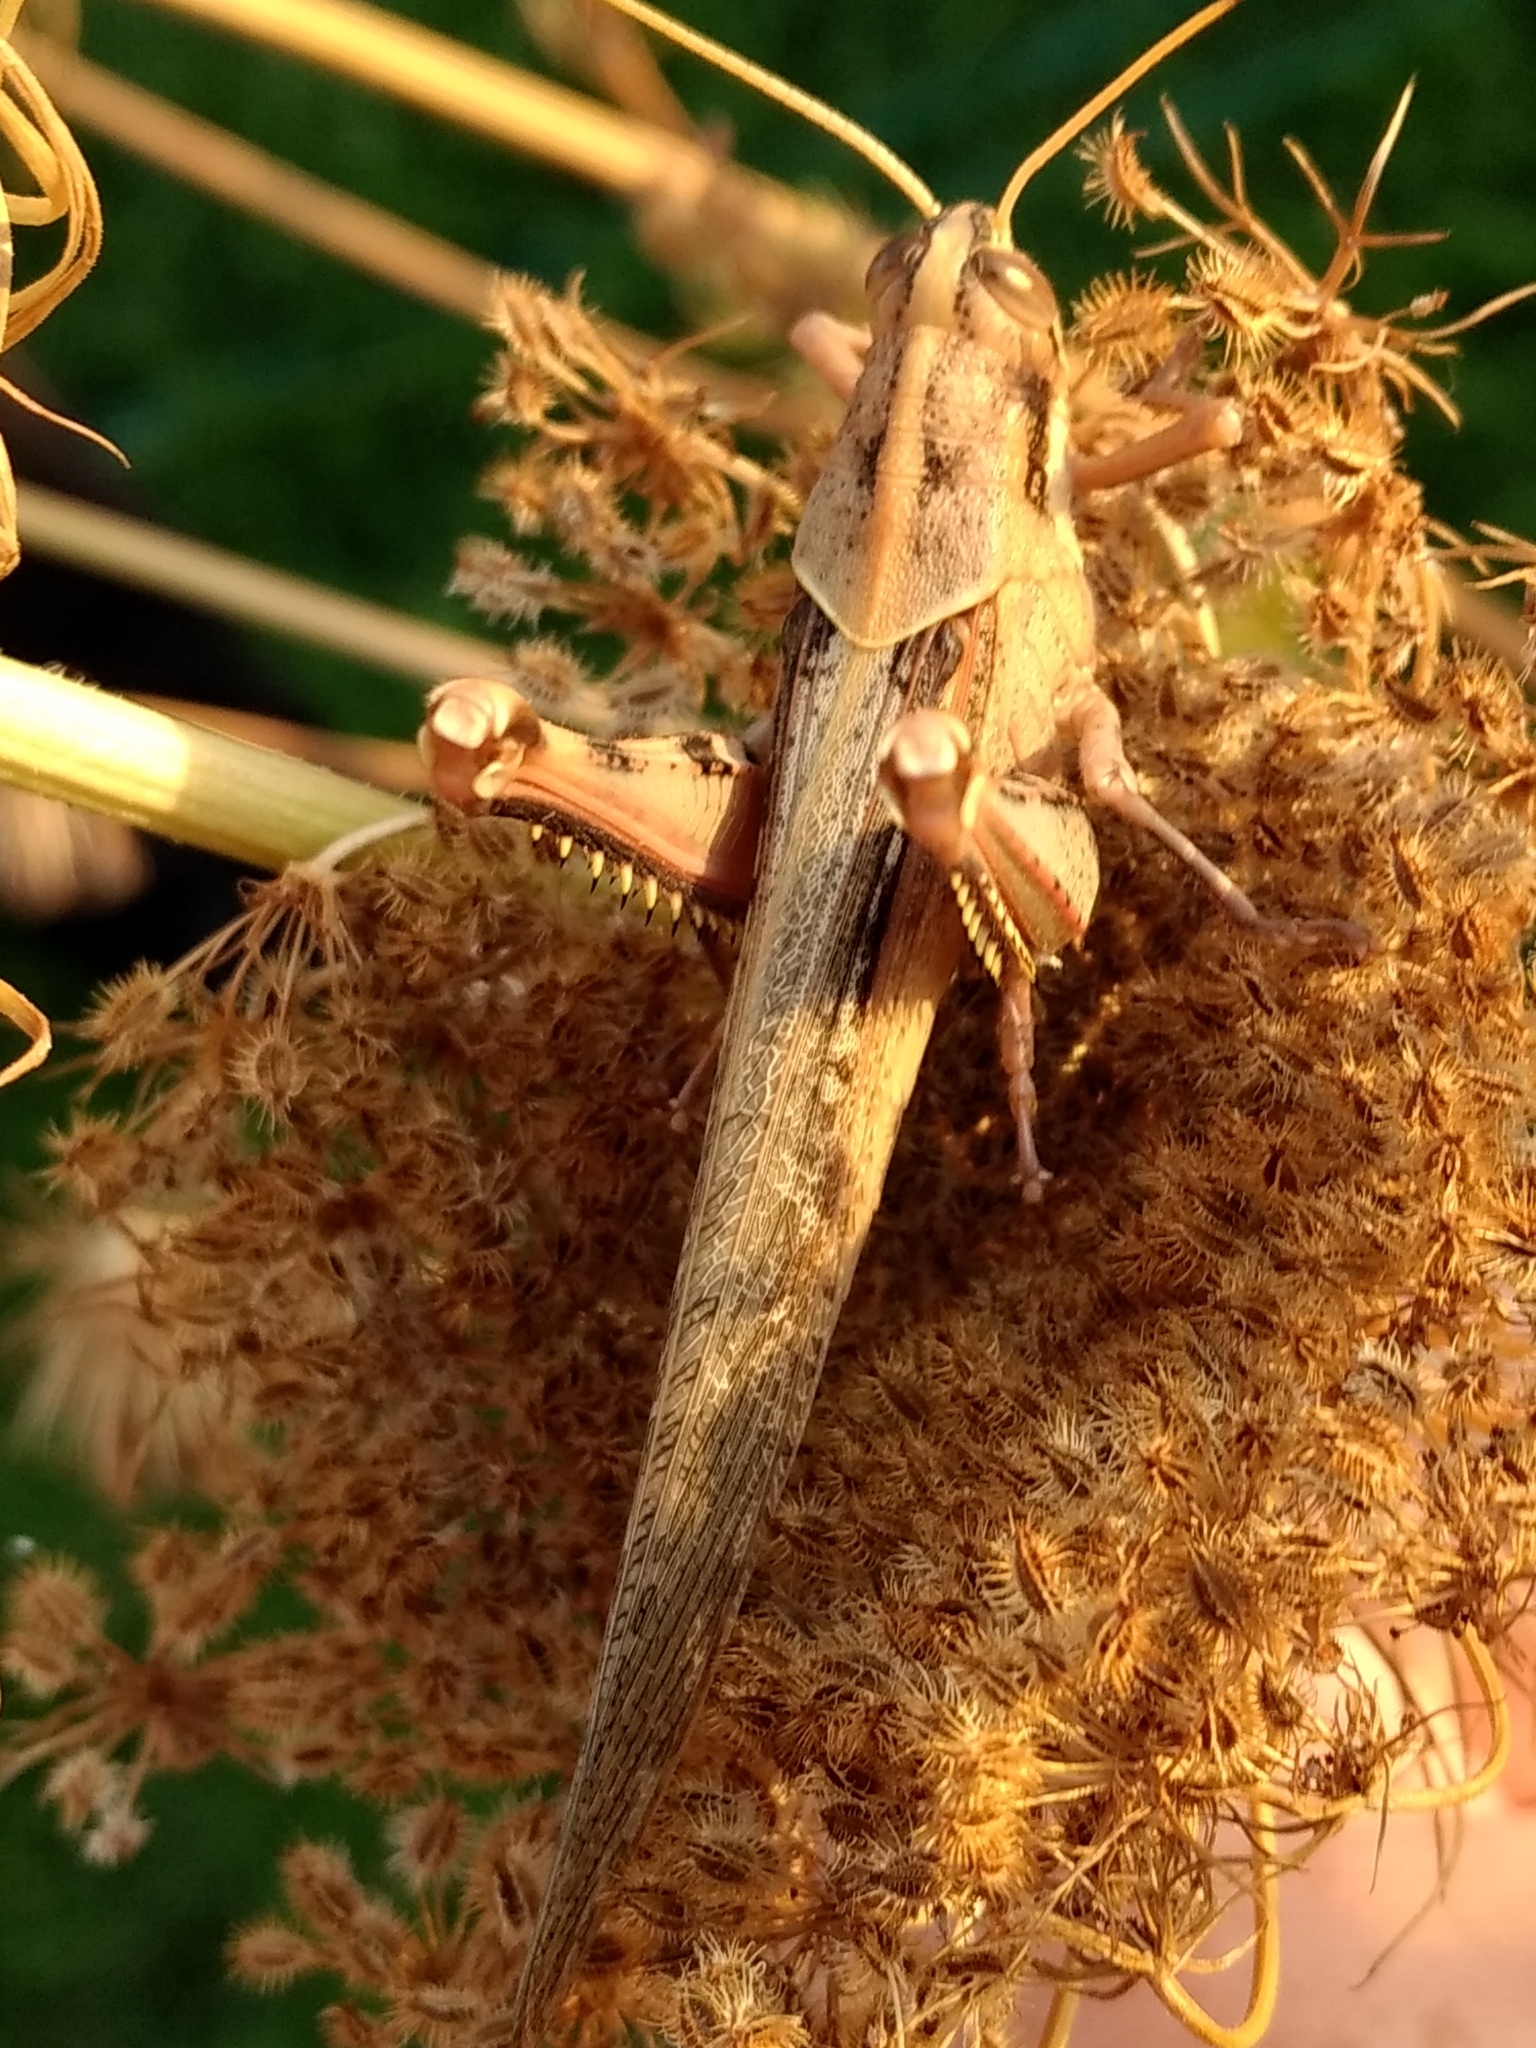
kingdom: Animalia
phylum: Arthropoda
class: Insecta
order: Orthoptera
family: Acrididae
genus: Schistocerca
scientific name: Schistocerca nitens
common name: Vagrant grasshopper
